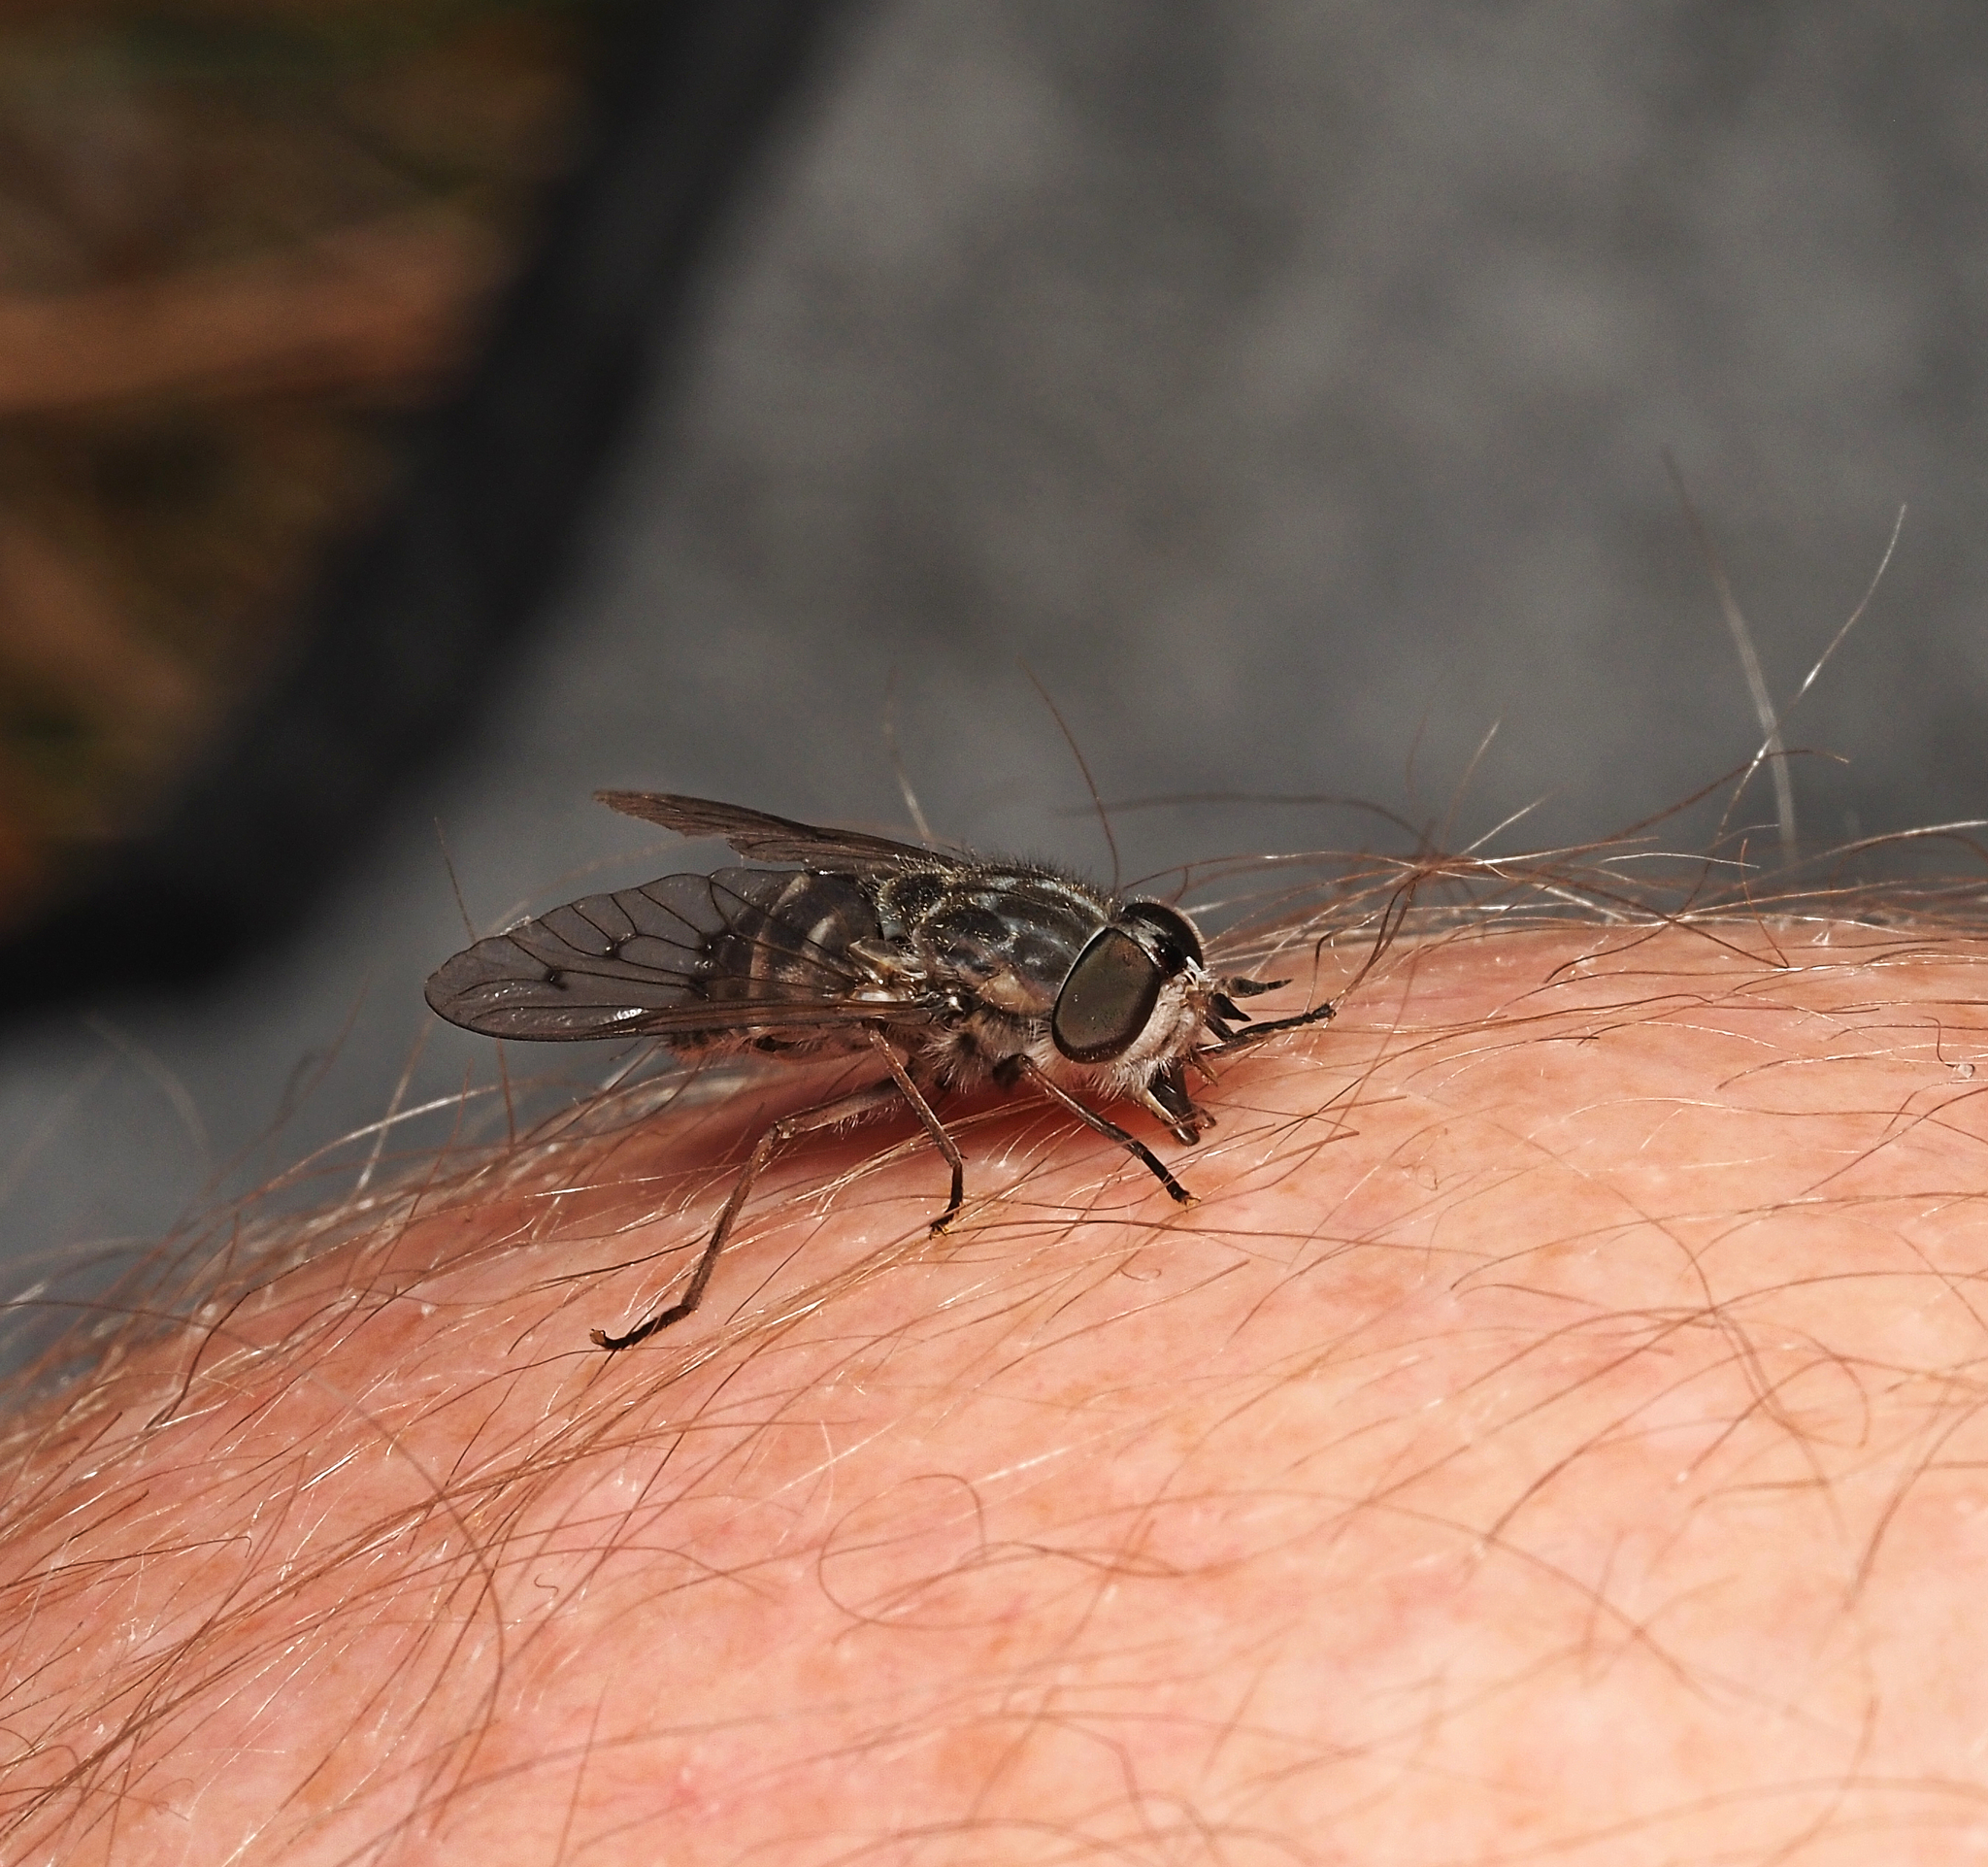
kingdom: Animalia
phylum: Arthropoda
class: Insecta
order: Diptera
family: Tabanidae
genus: Dasybasis
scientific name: Dasybasis gentilis
